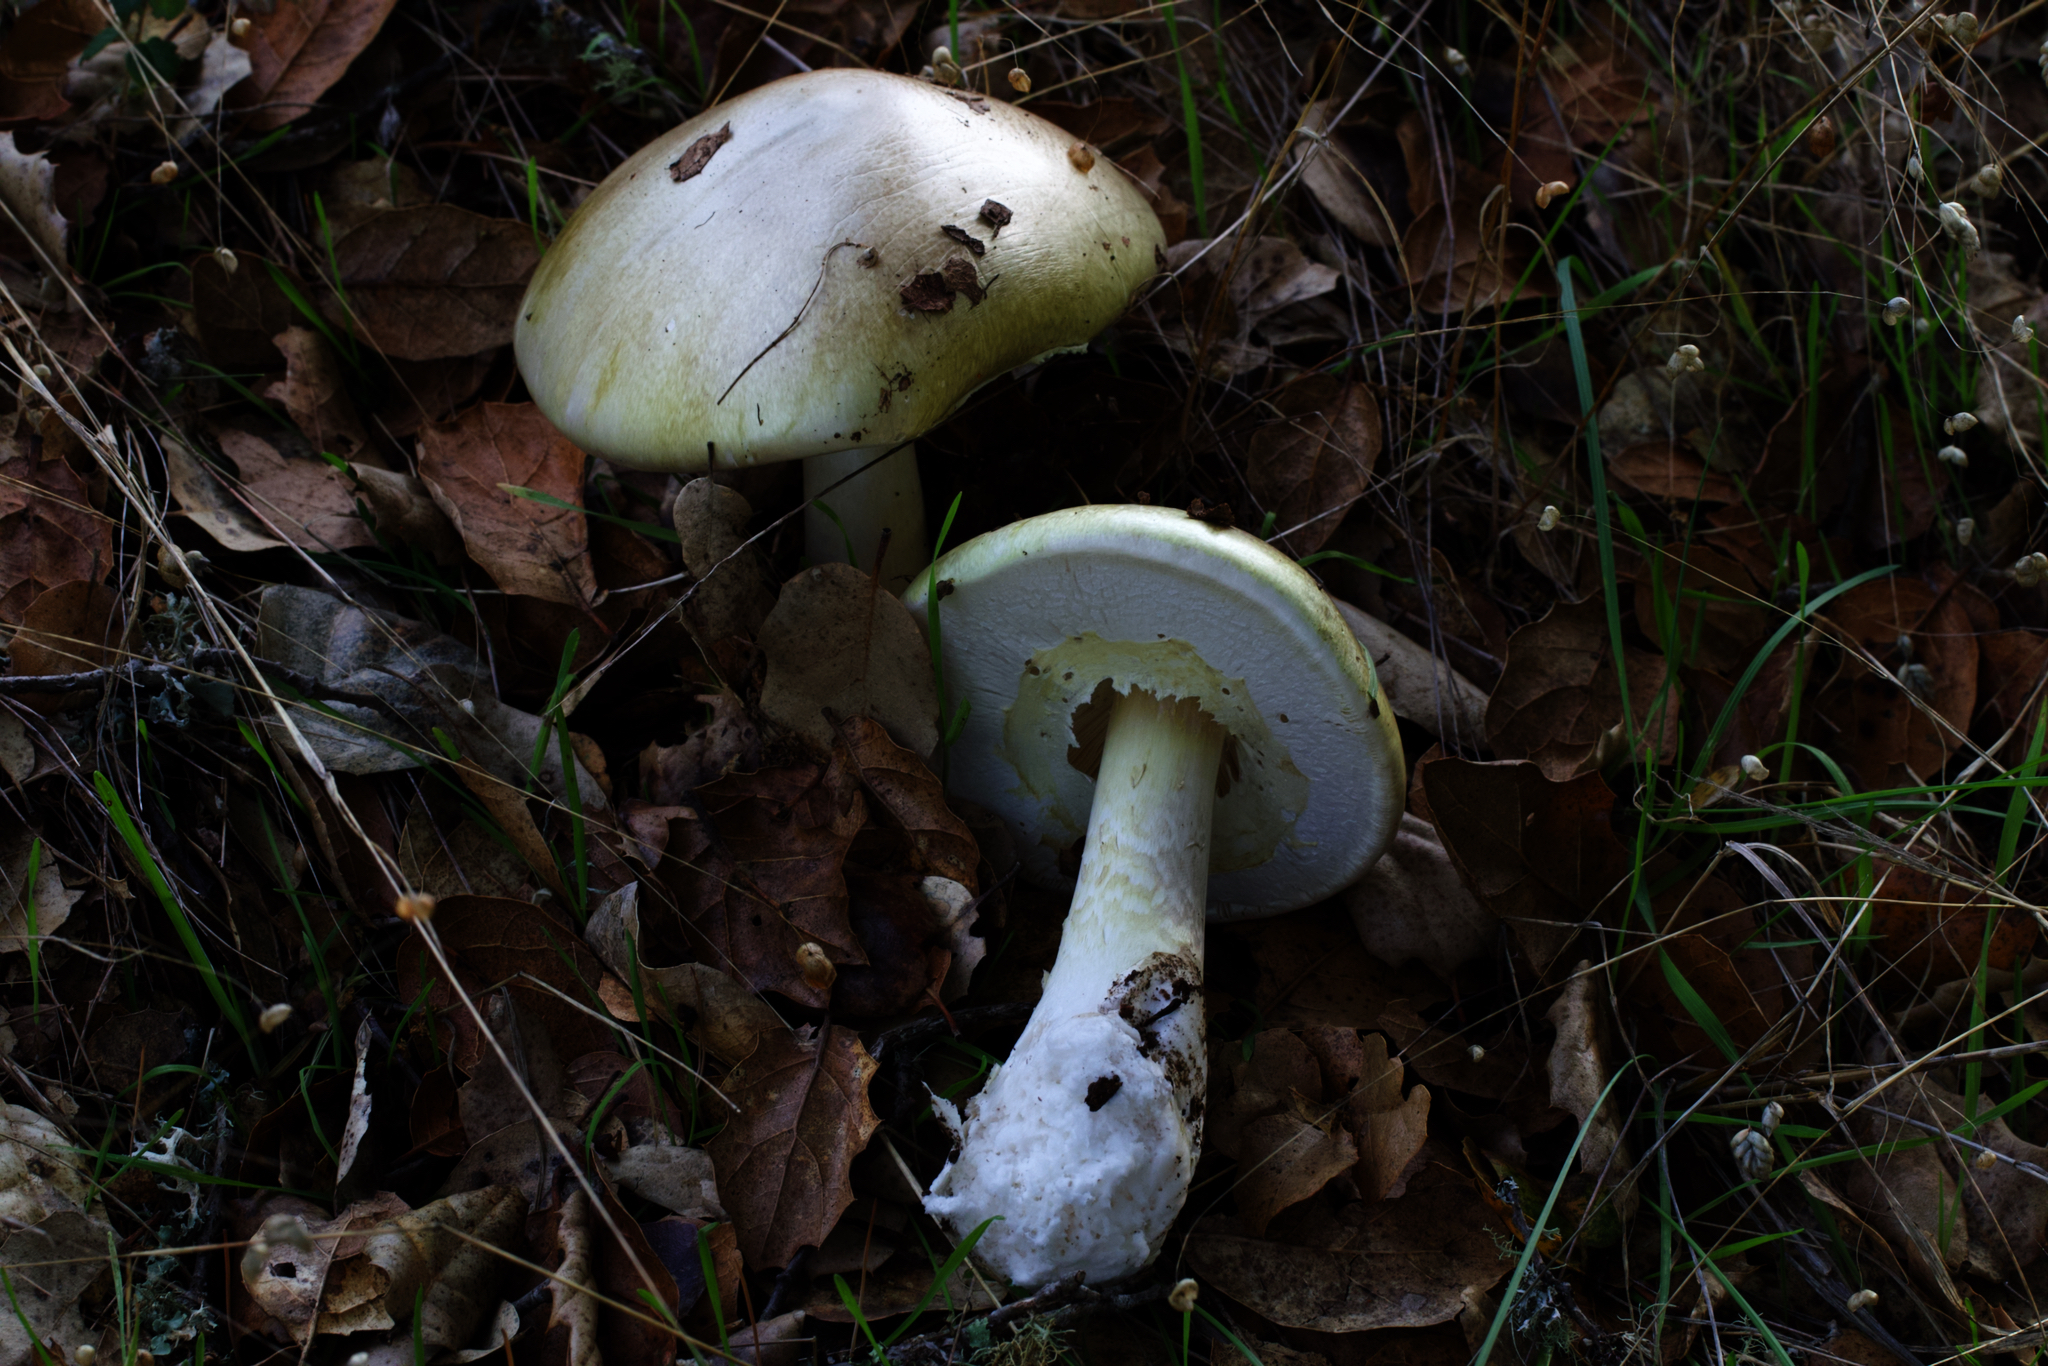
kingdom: Fungi
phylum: Basidiomycota
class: Agaricomycetes
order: Agaricales
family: Amanitaceae
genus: Amanita
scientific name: Amanita phalloides
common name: Death cap
